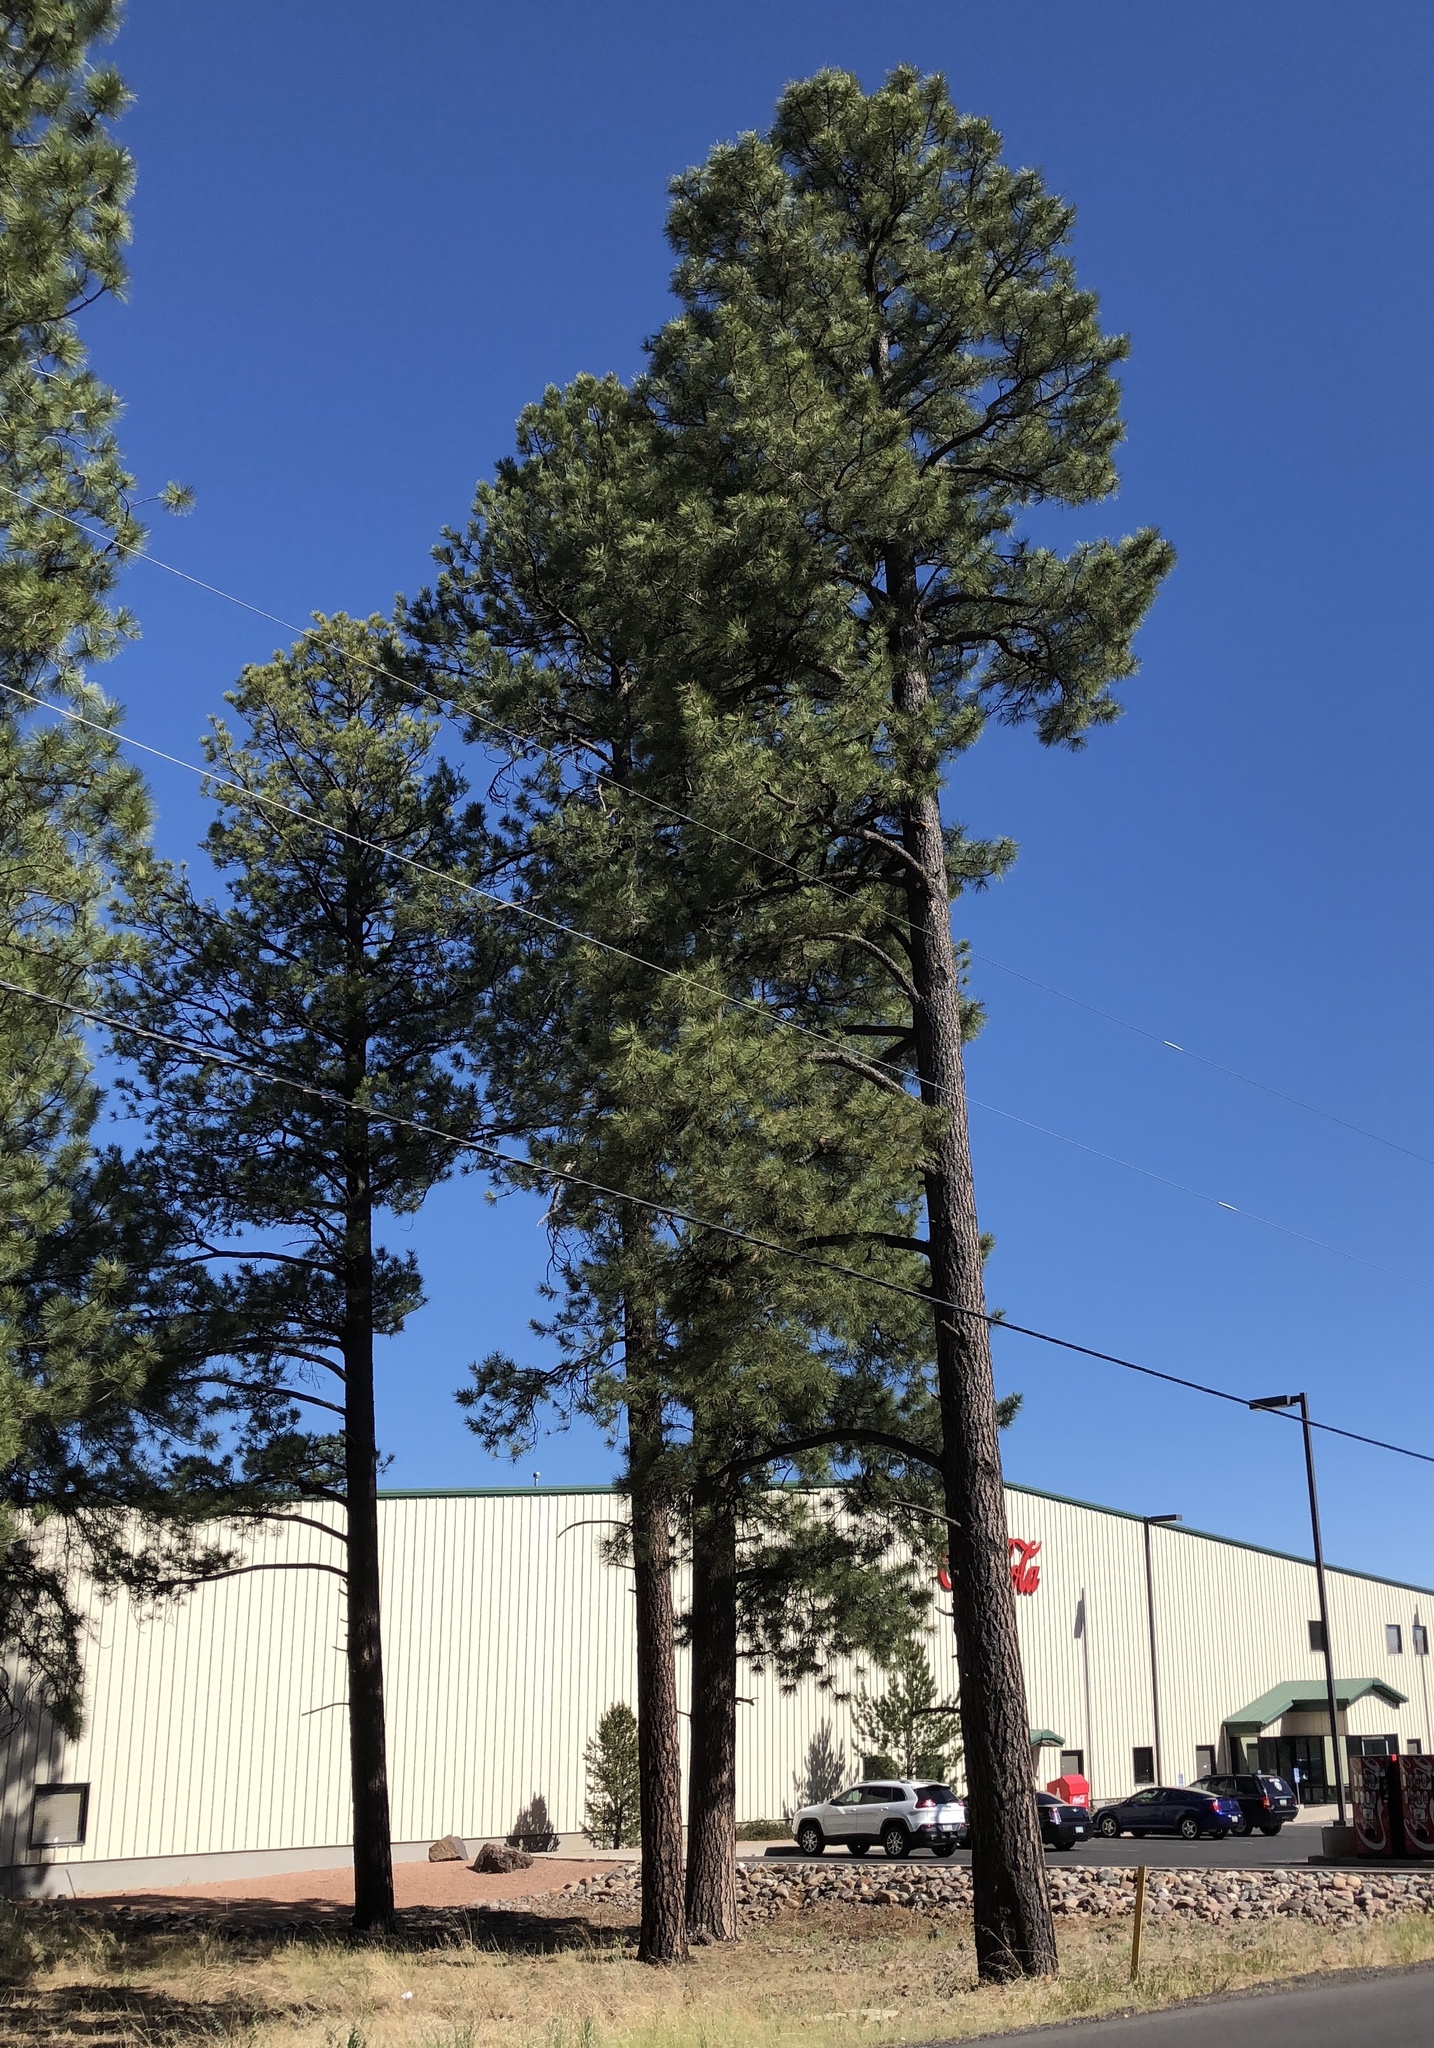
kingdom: Plantae
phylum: Tracheophyta
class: Pinopsida
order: Pinales
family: Pinaceae
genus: Pinus
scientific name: Pinus ponderosa
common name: Western yellow-pine
